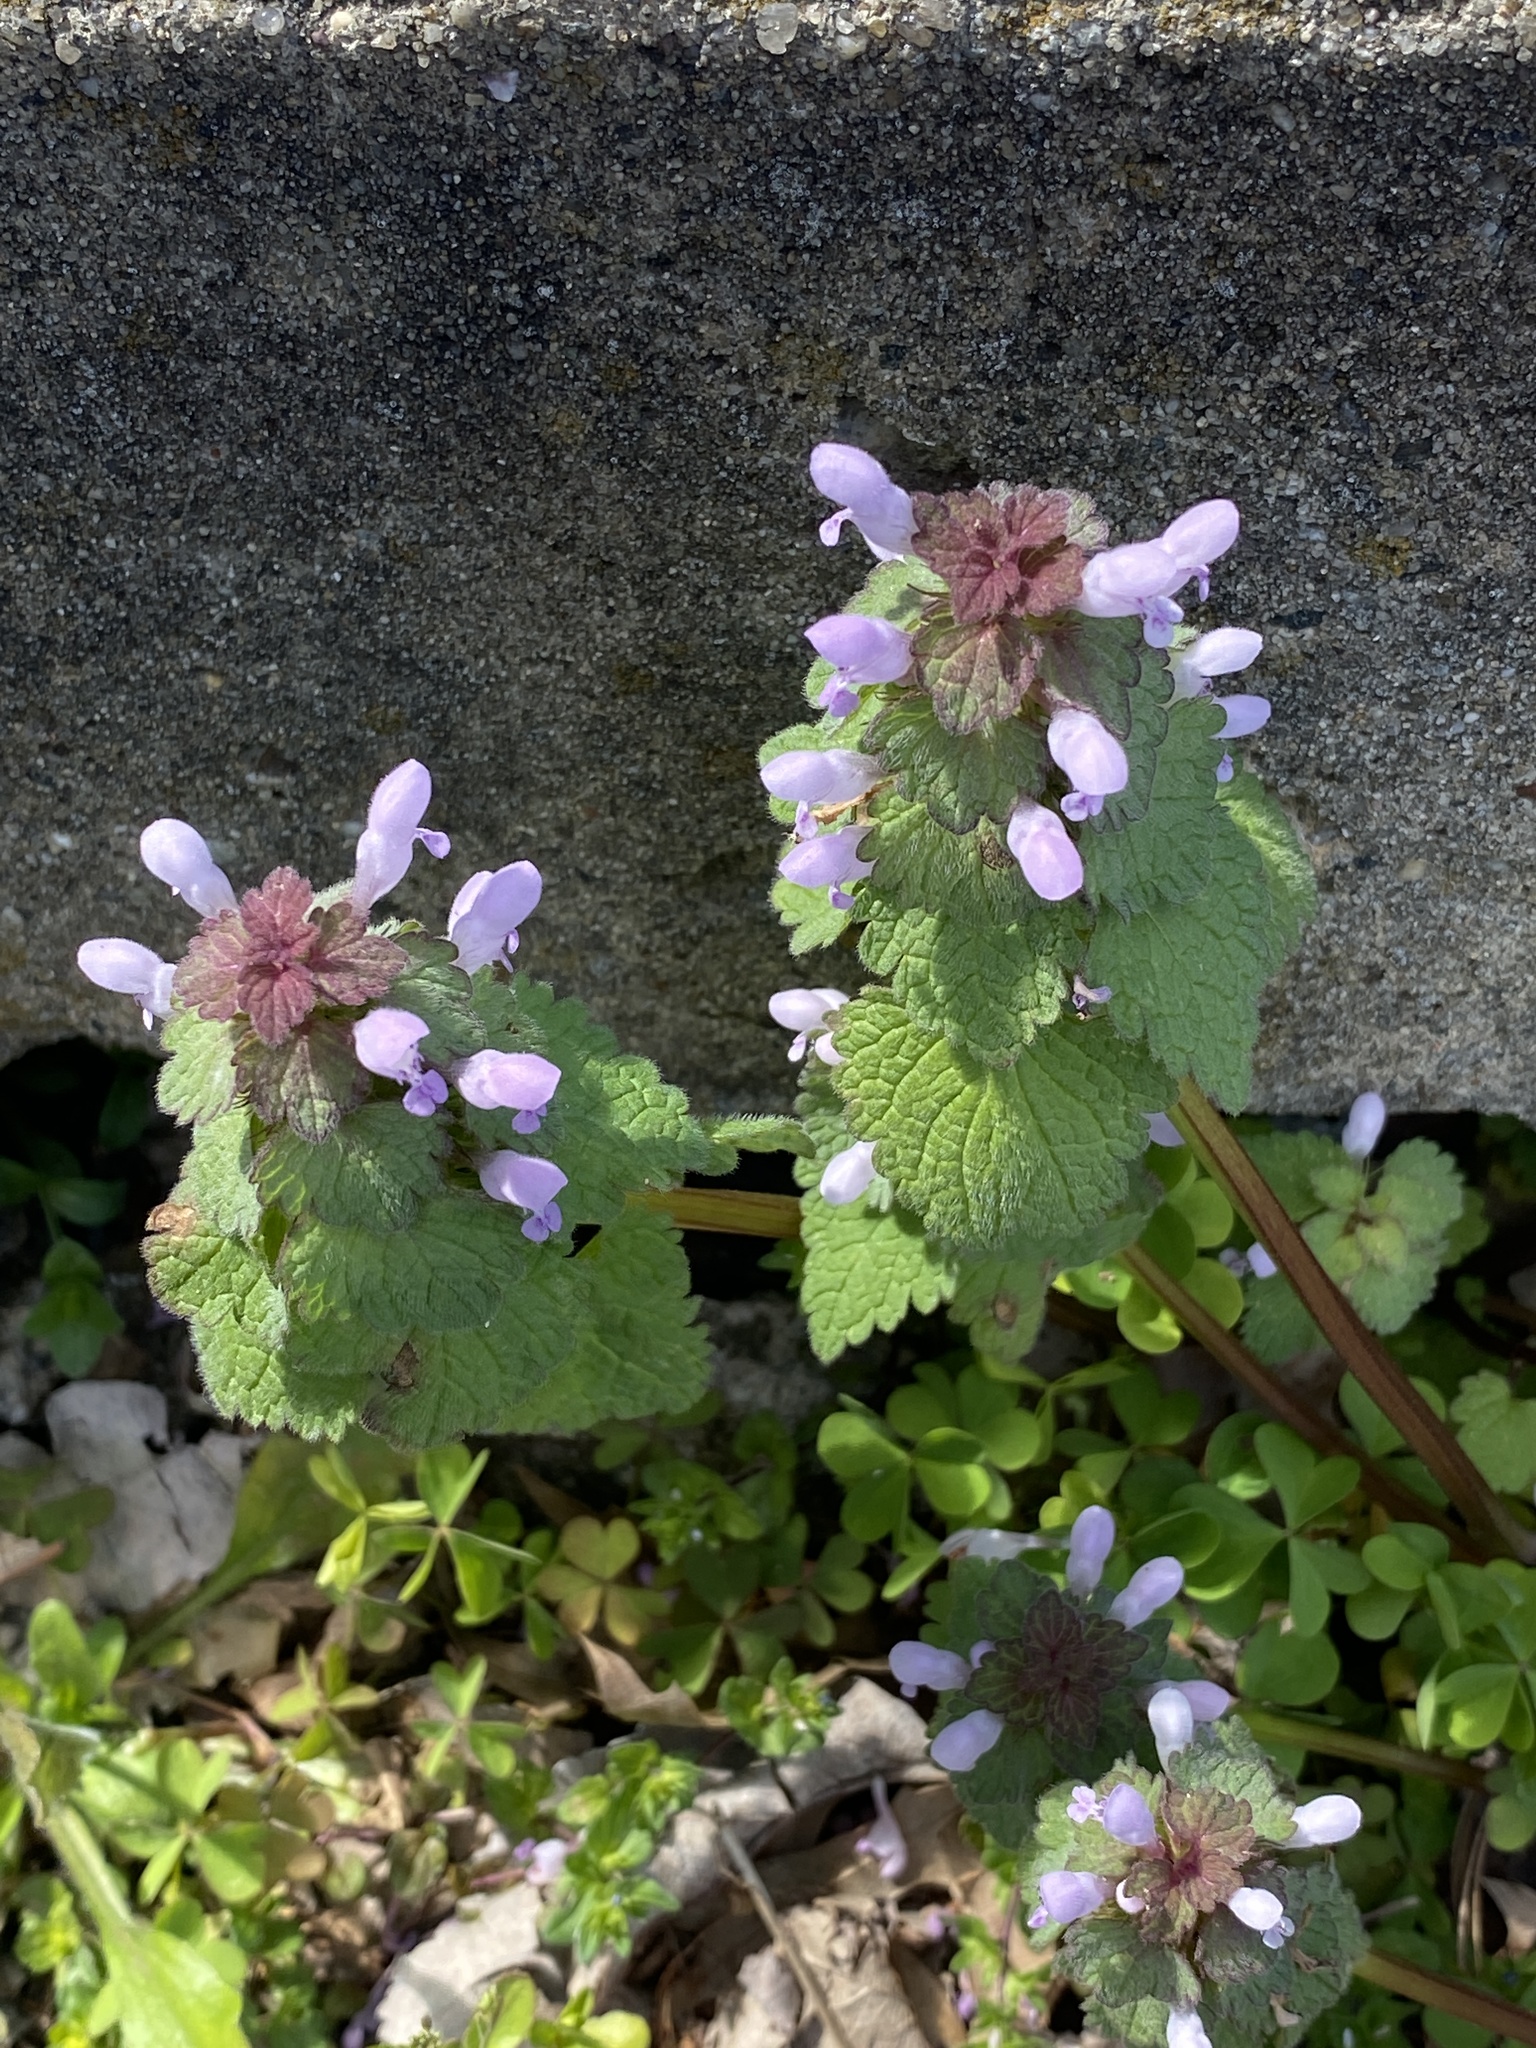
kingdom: Plantae
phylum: Tracheophyta
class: Magnoliopsida
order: Lamiales
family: Lamiaceae
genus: Lamium
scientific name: Lamium purpureum
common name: Red dead-nettle
